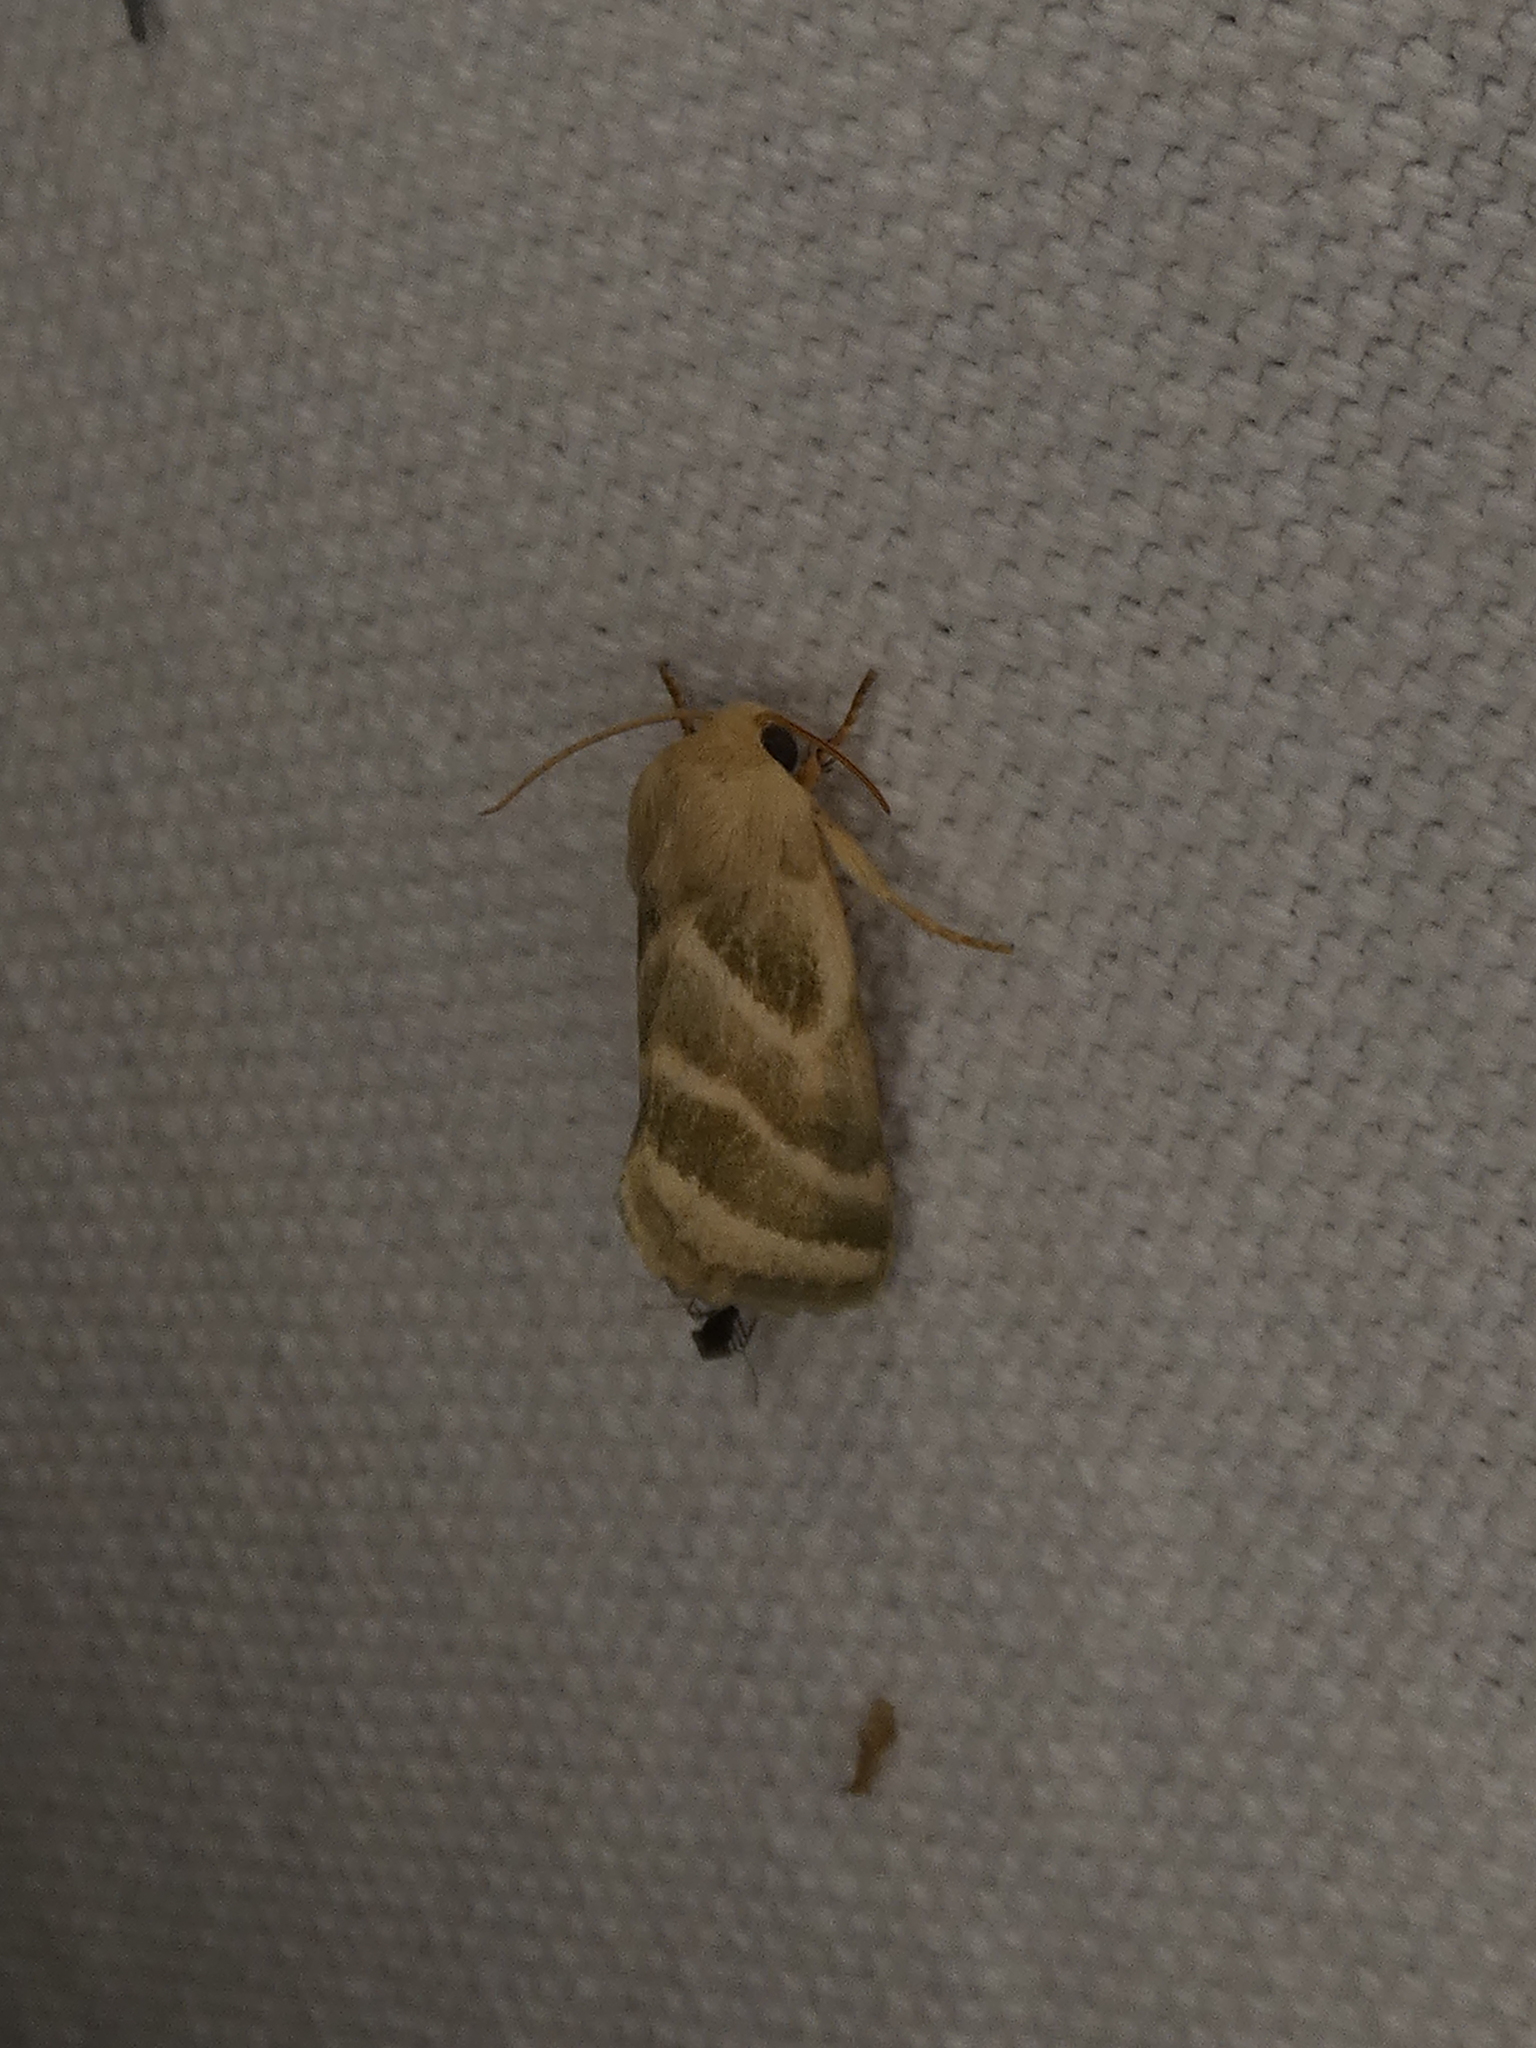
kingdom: Animalia
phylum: Arthropoda
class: Insecta
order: Lepidoptera
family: Noctuidae
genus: Schinia
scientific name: Schinia trifascia
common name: Three-lined flower moth
